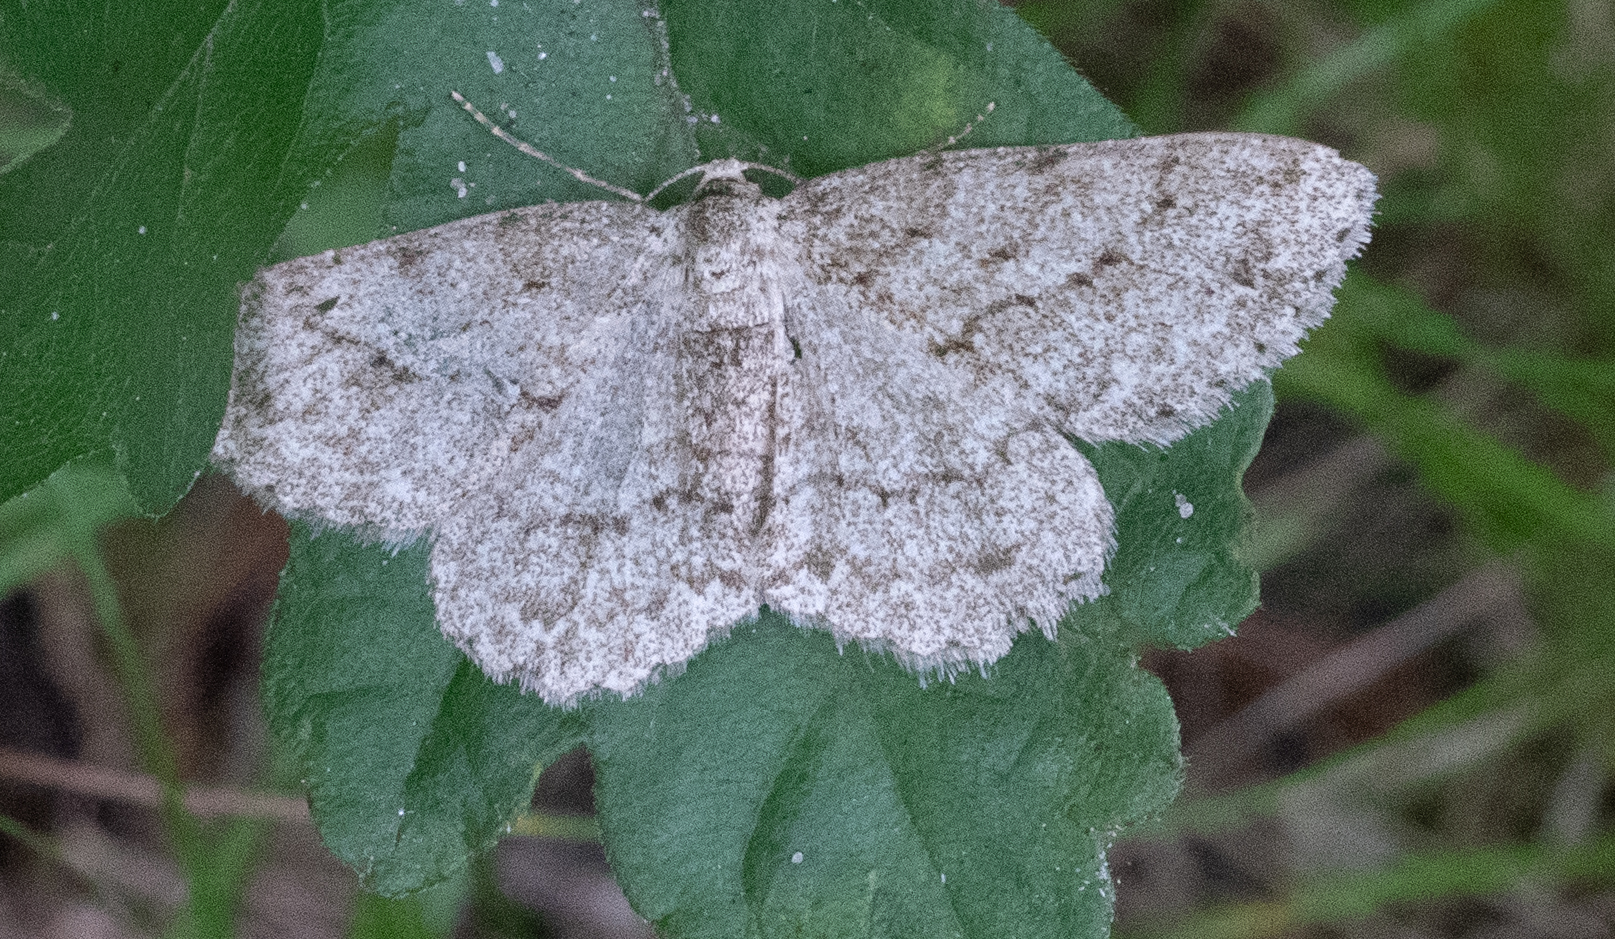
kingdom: Animalia
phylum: Arthropoda
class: Insecta
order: Lepidoptera
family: Geometridae
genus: Ectropis
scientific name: Ectropis crepuscularia
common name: Engrailed
